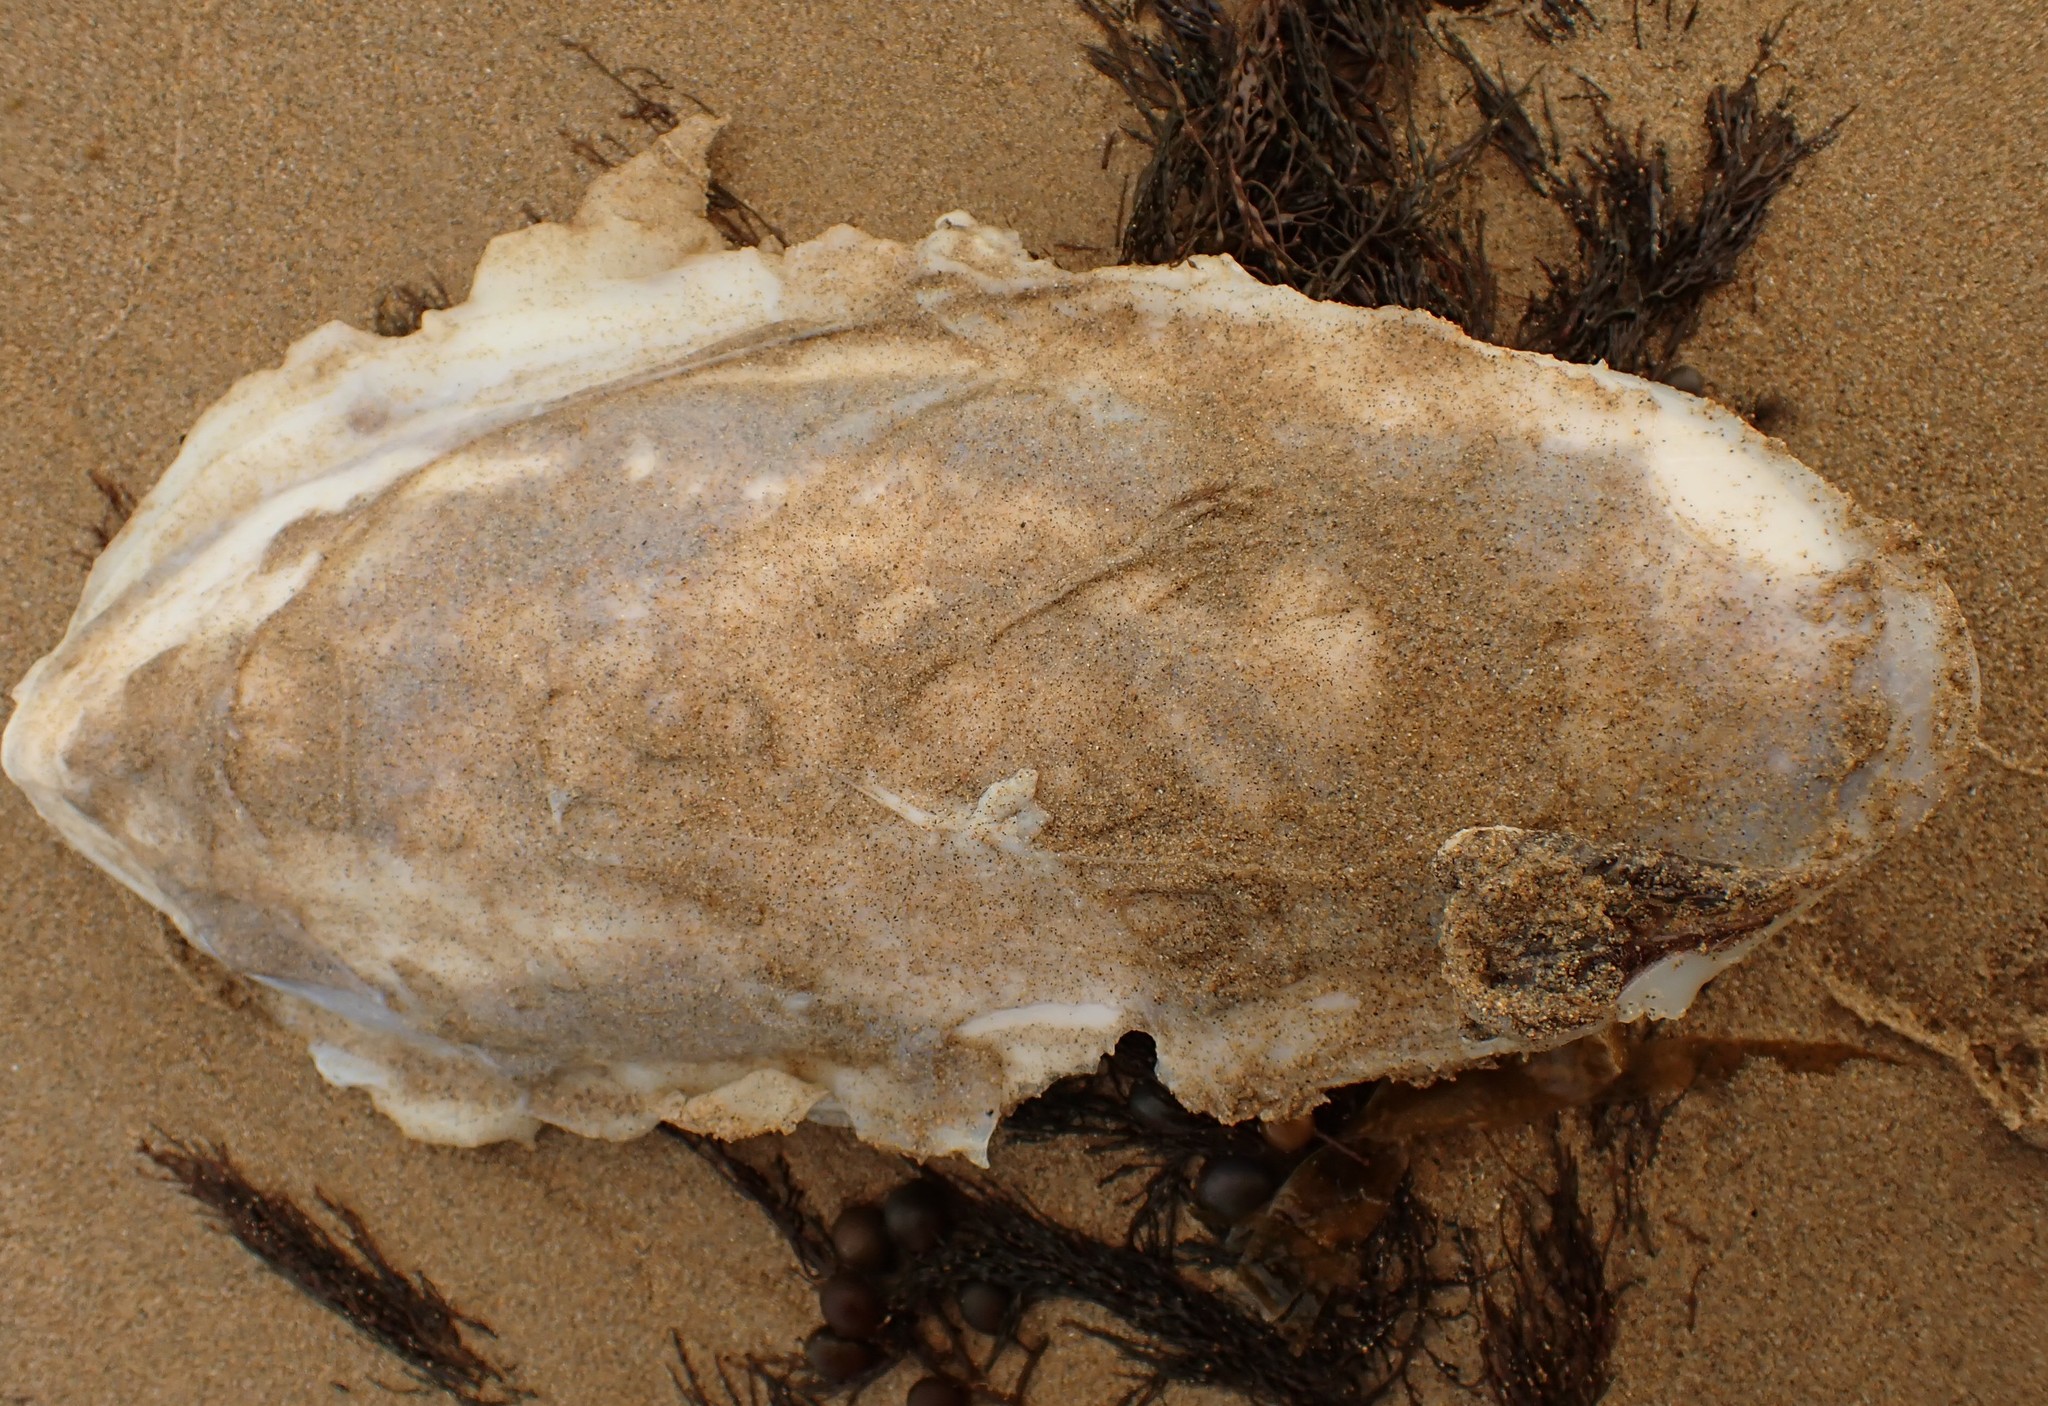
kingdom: Animalia
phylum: Mollusca
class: Cephalopoda
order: Sepiida
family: Sepiidae
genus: Ascarosepion
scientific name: Ascarosepion apama
